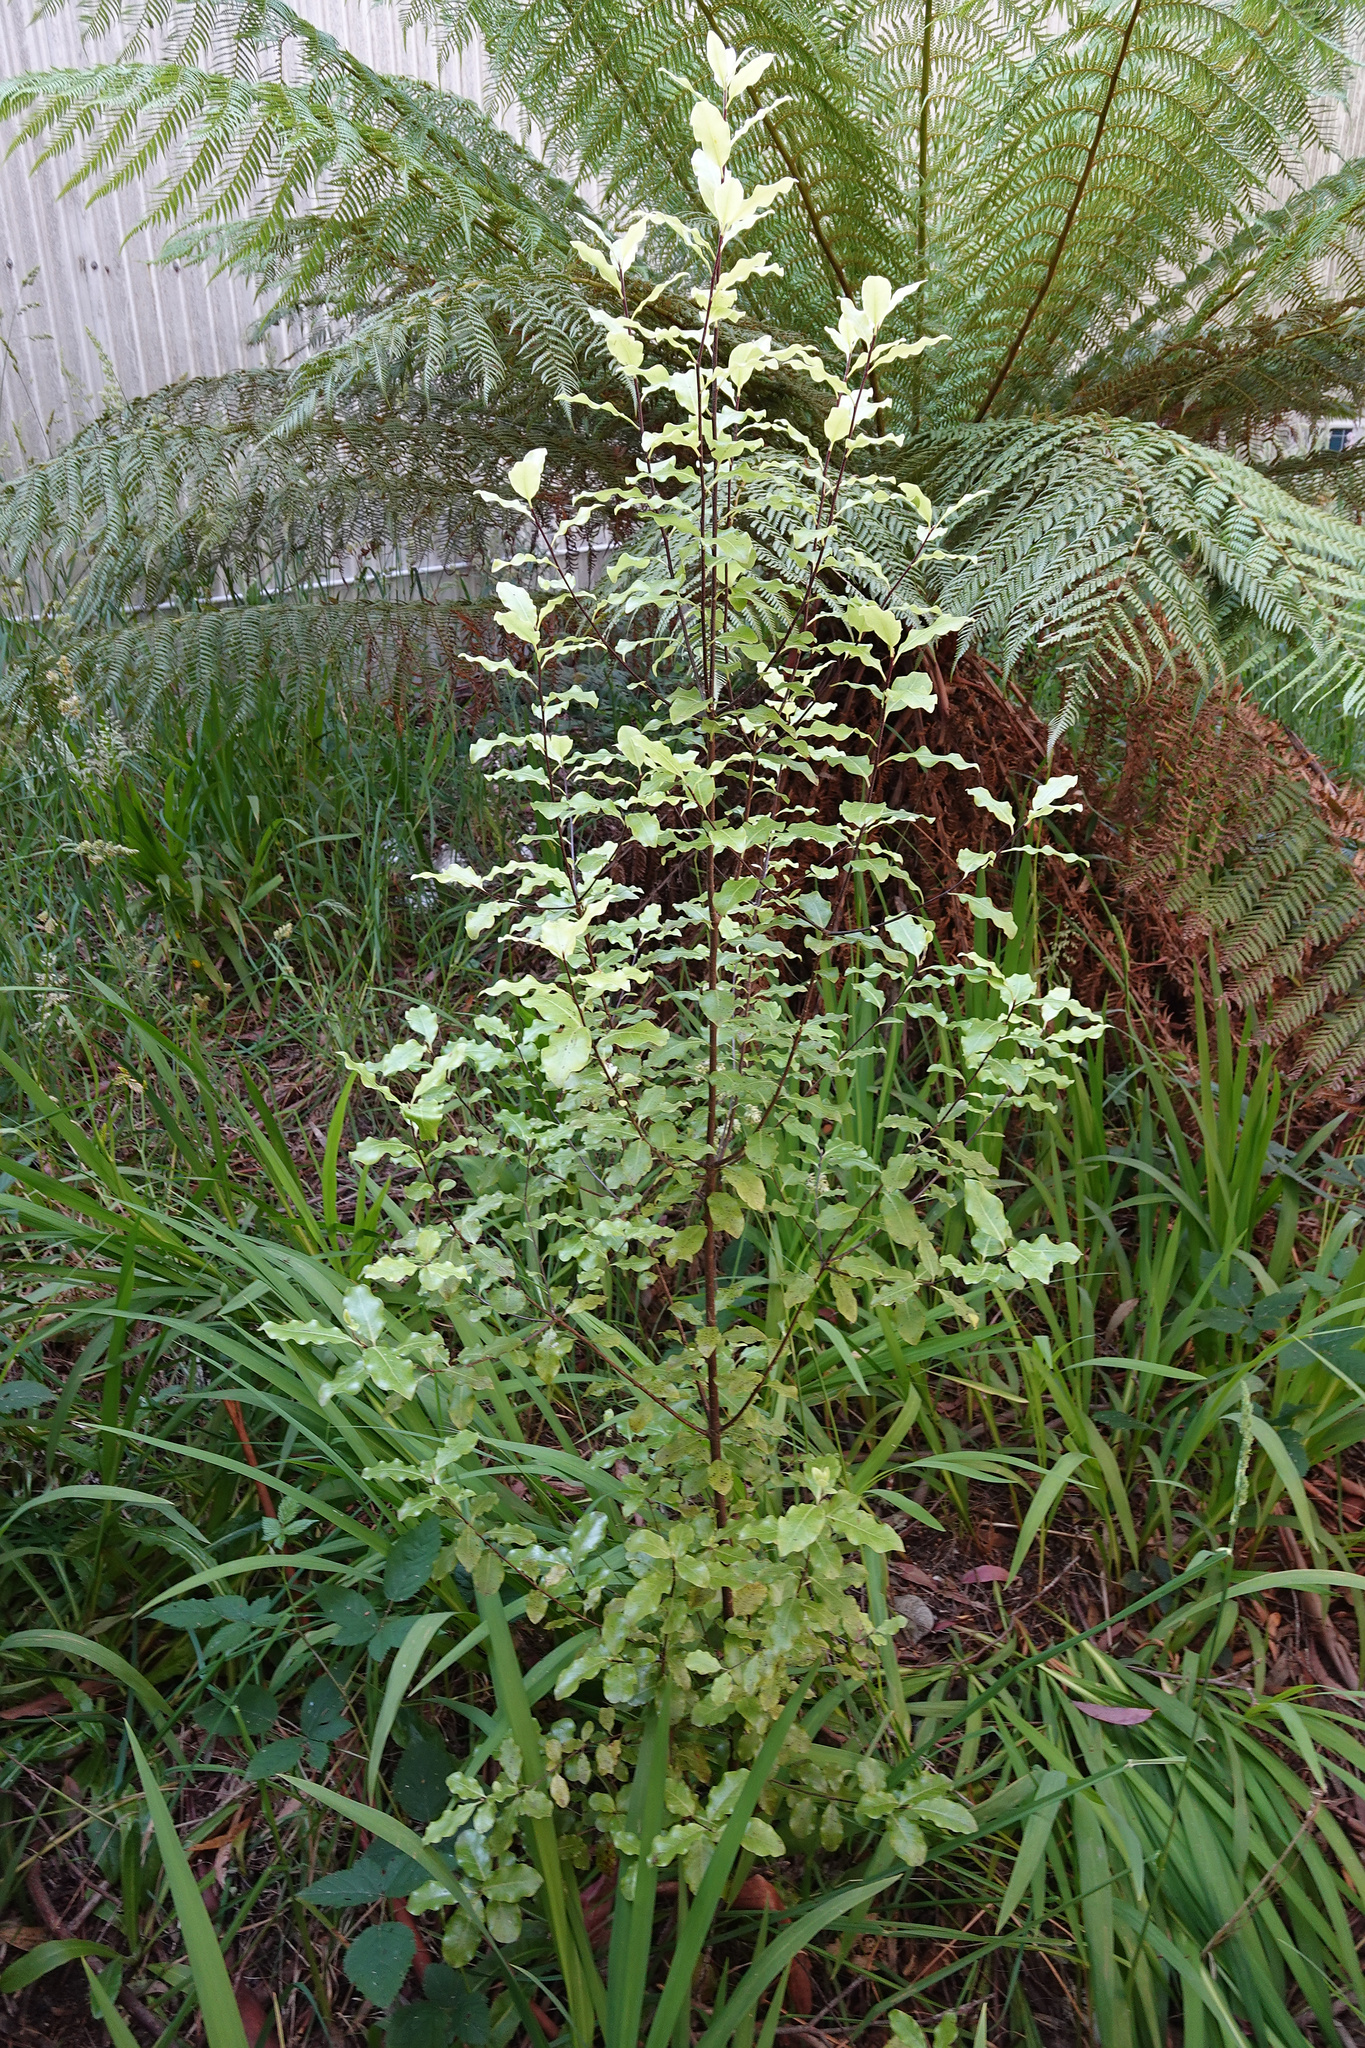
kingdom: Plantae
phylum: Tracheophyta
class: Magnoliopsida
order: Apiales
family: Pittosporaceae
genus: Pittosporum
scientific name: Pittosporum tenuifolium
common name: Kohuhu
